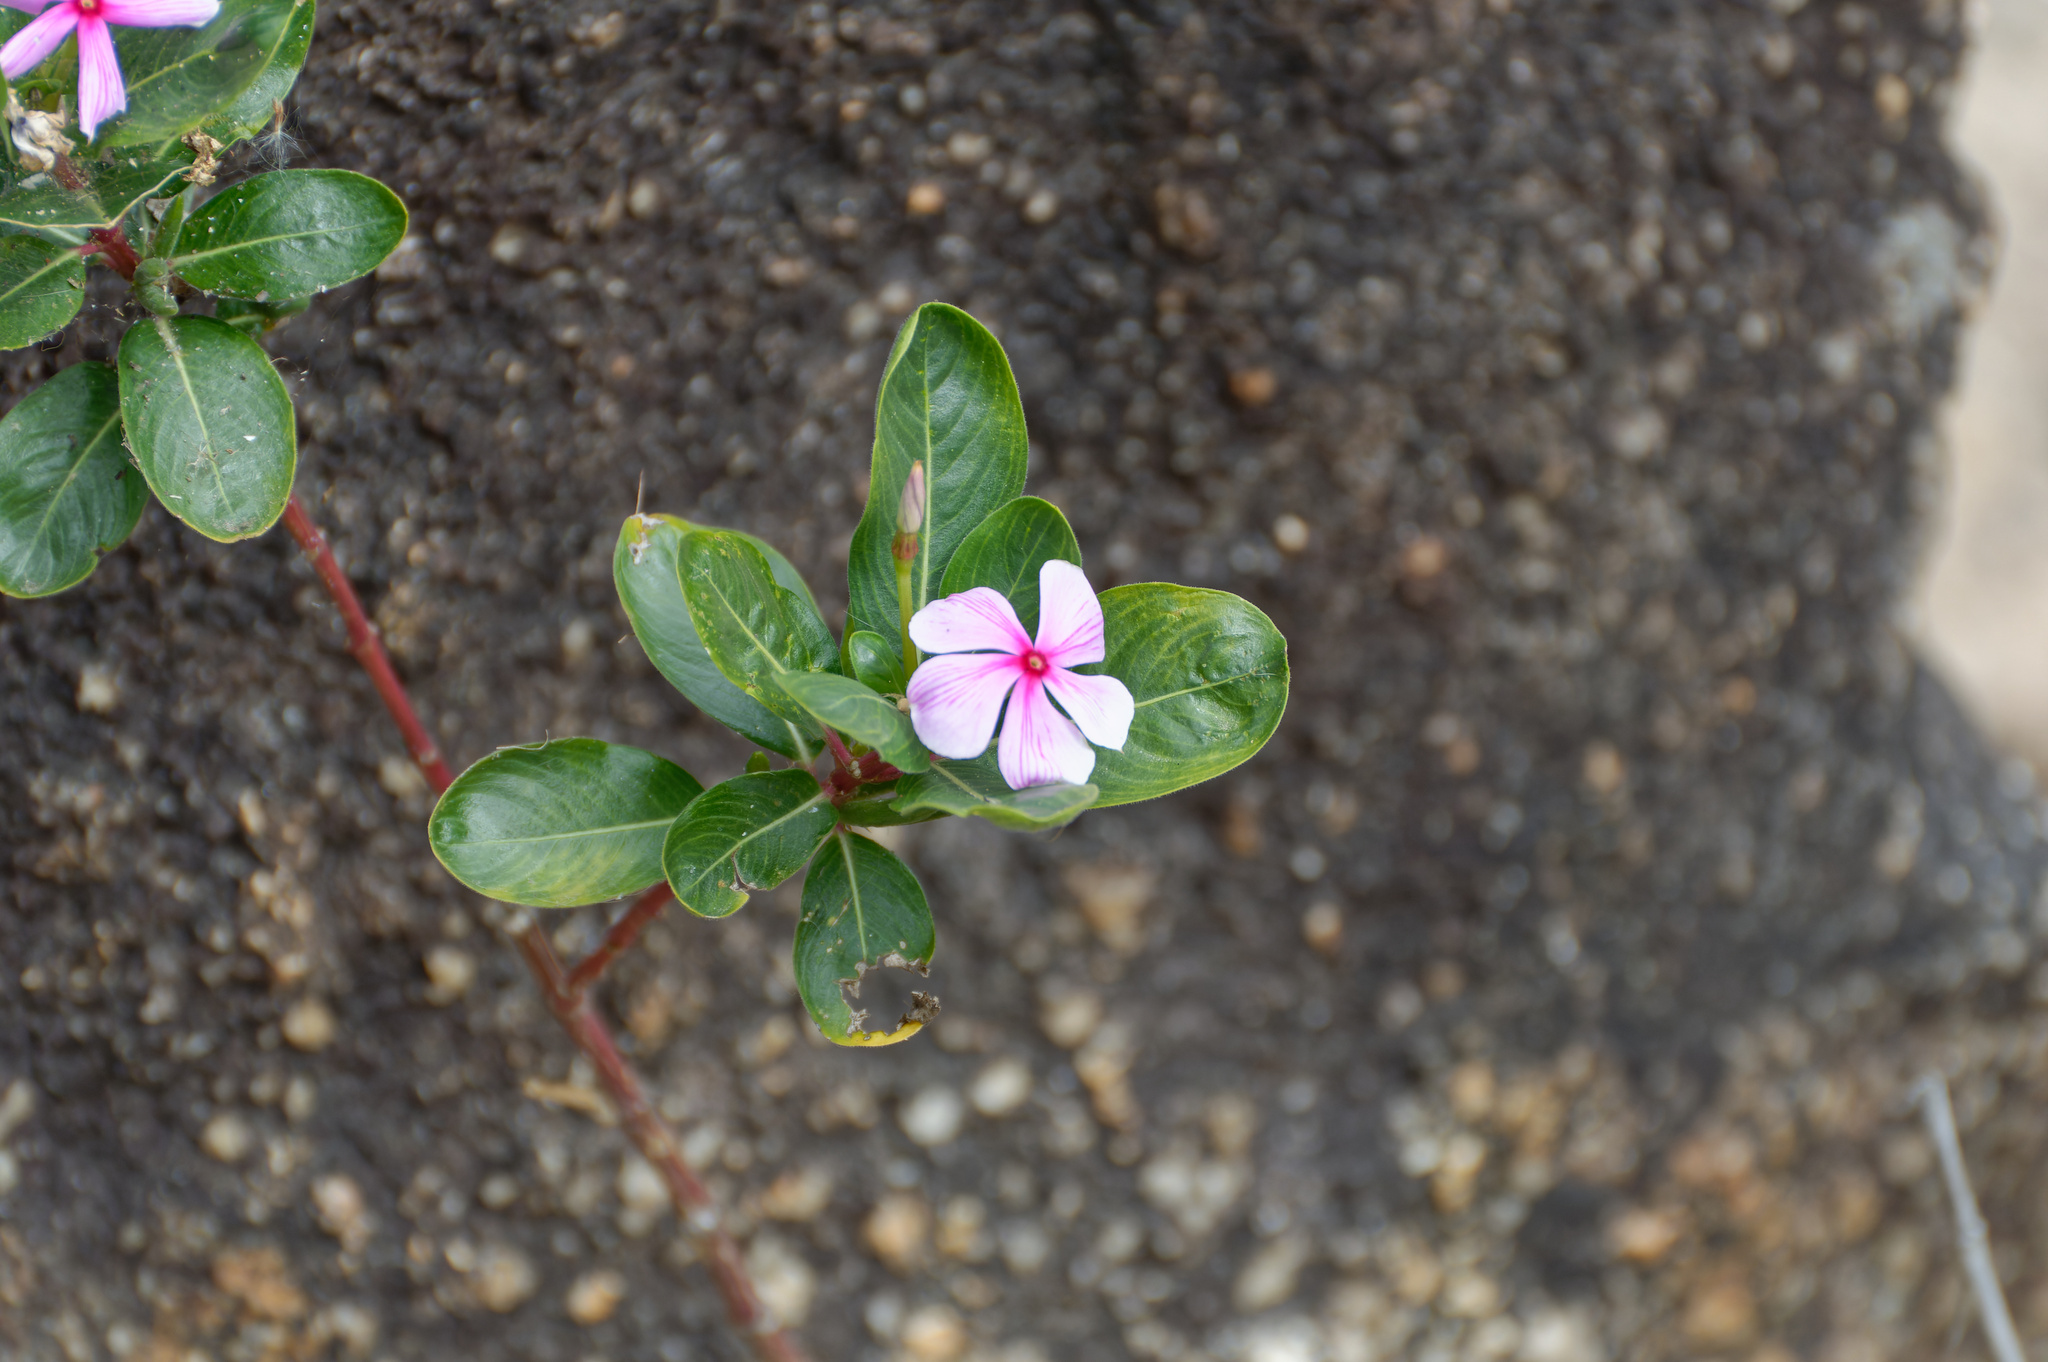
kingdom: Plantae
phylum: Tracheophyta
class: Magnoliopsida
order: Gentianales
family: Apocynaceae
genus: Catharanthus
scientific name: Catharanthus roseus
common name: Madagascar periwinkle
